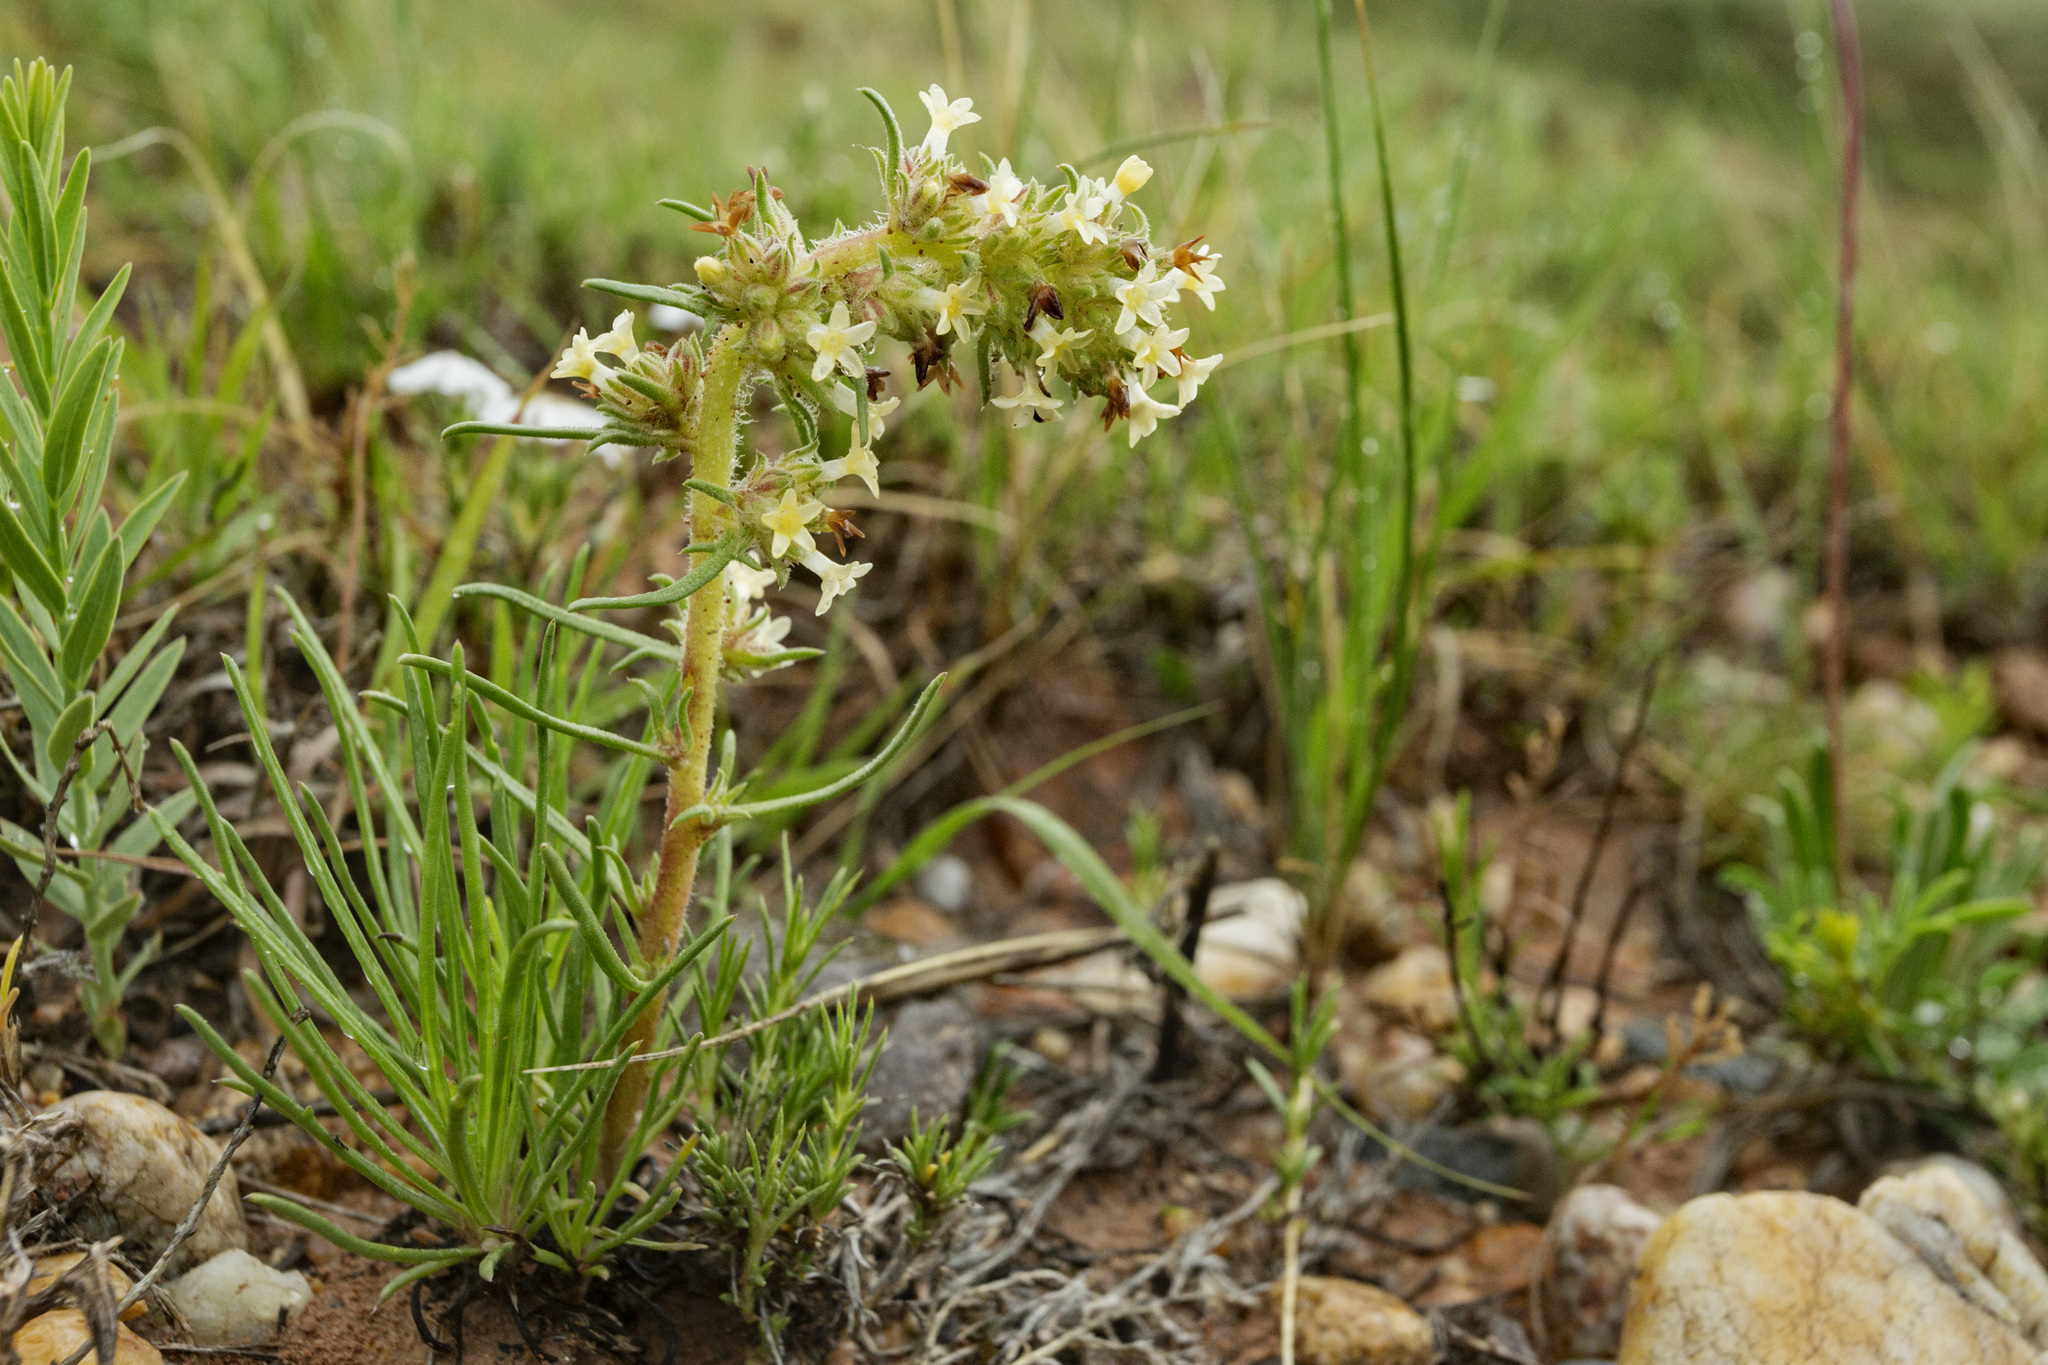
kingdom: Plantae
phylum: Tracheophyta
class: Magnoliopsida
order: Ericales
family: Polemoniaceae
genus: Ipomopsis
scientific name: Ipomopsis spicata
